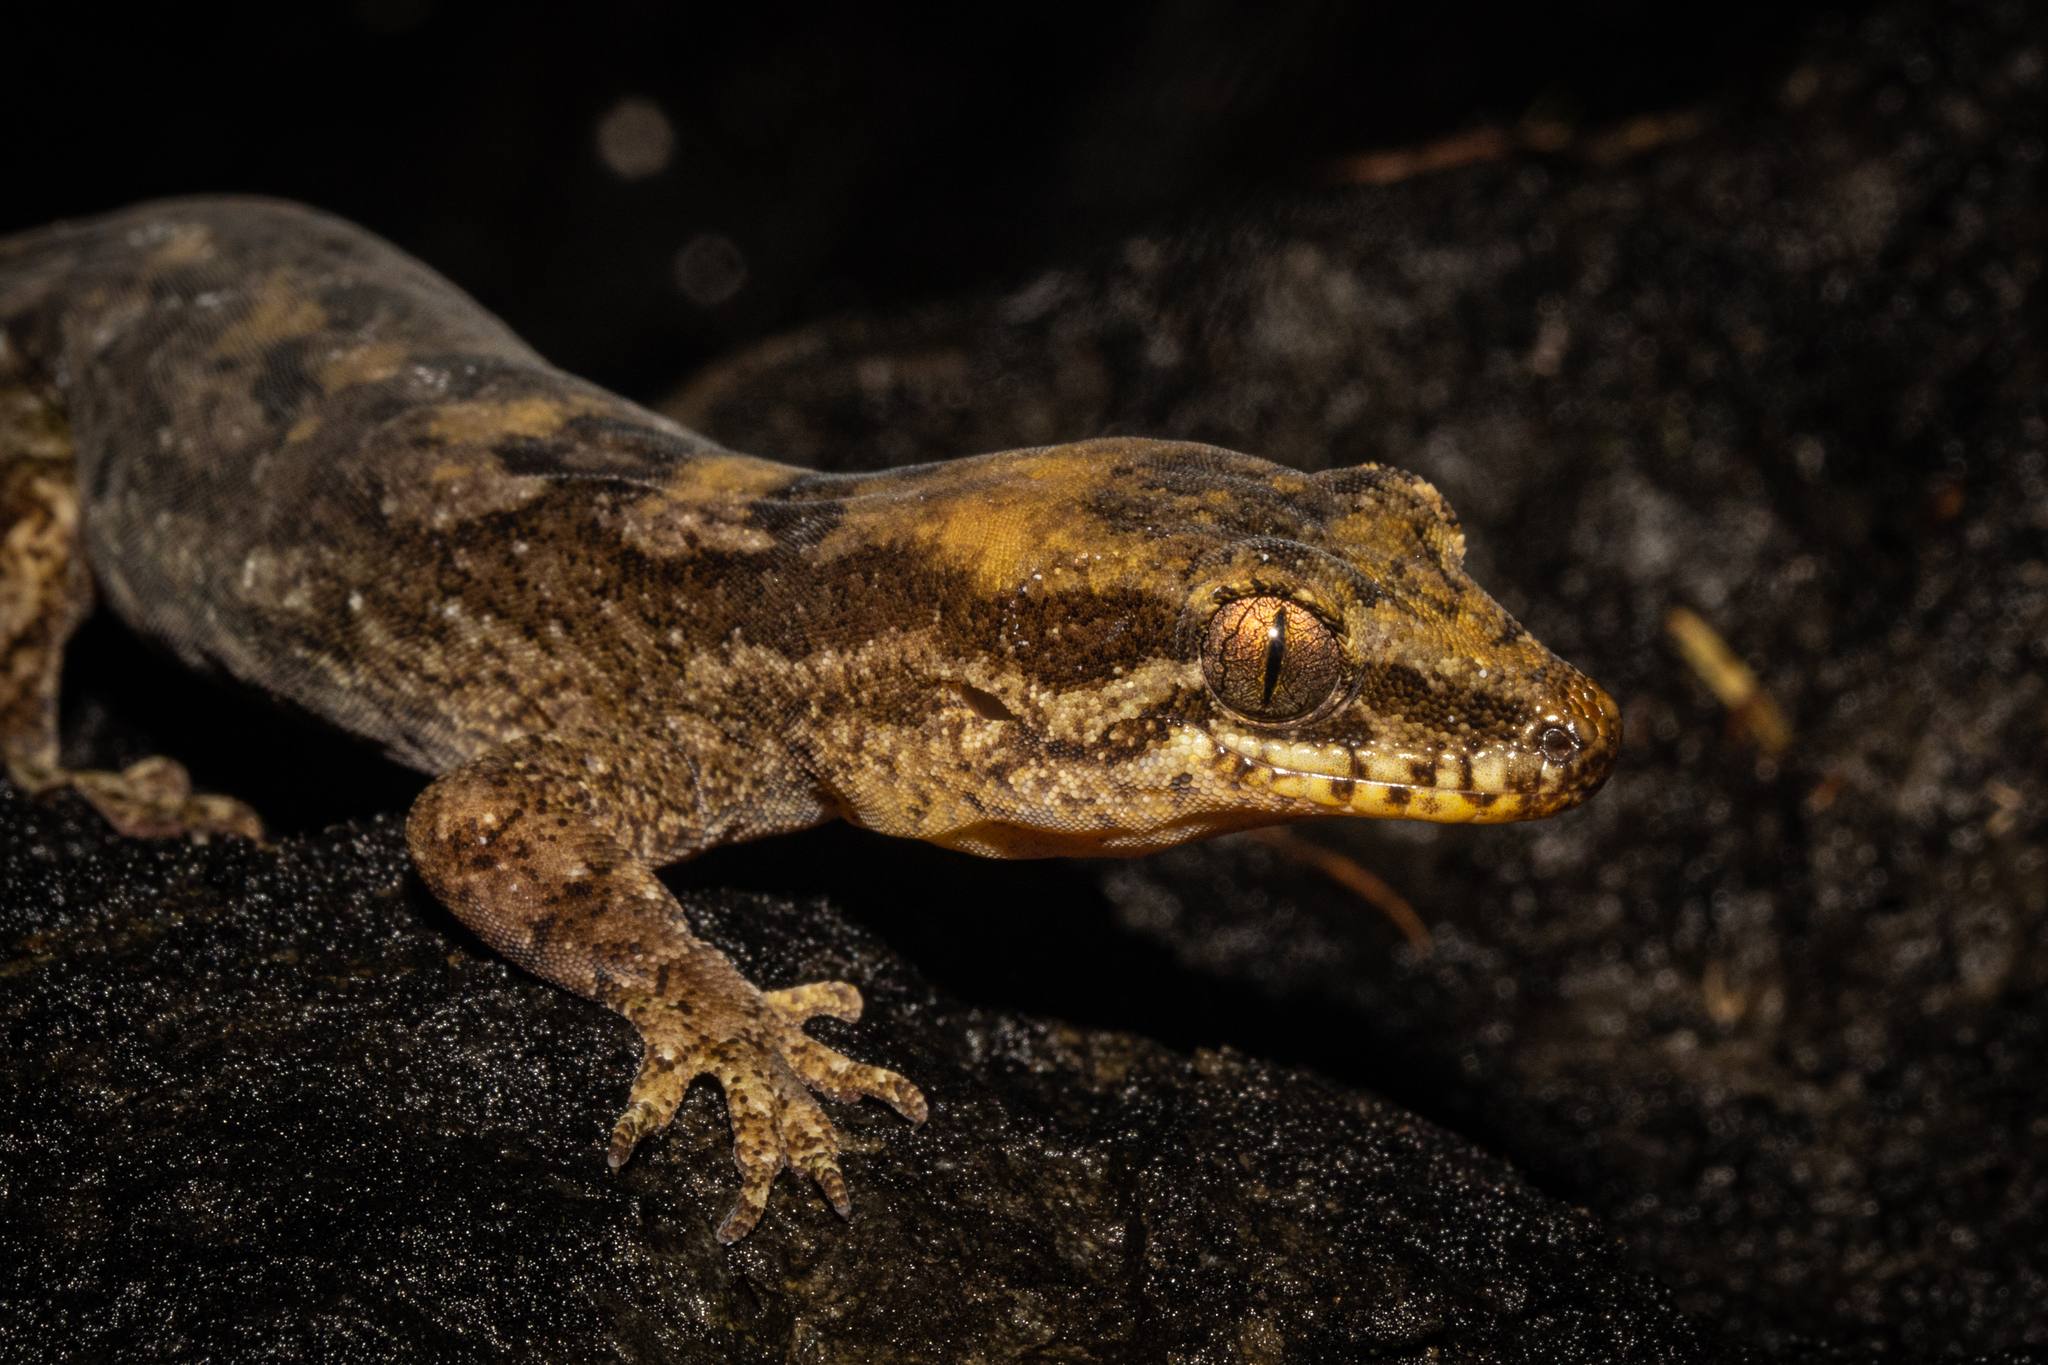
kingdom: Animalia
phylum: Chordata
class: Squamata
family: Diplodactylidae
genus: Dactylocnemis
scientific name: Dactylocnemis
